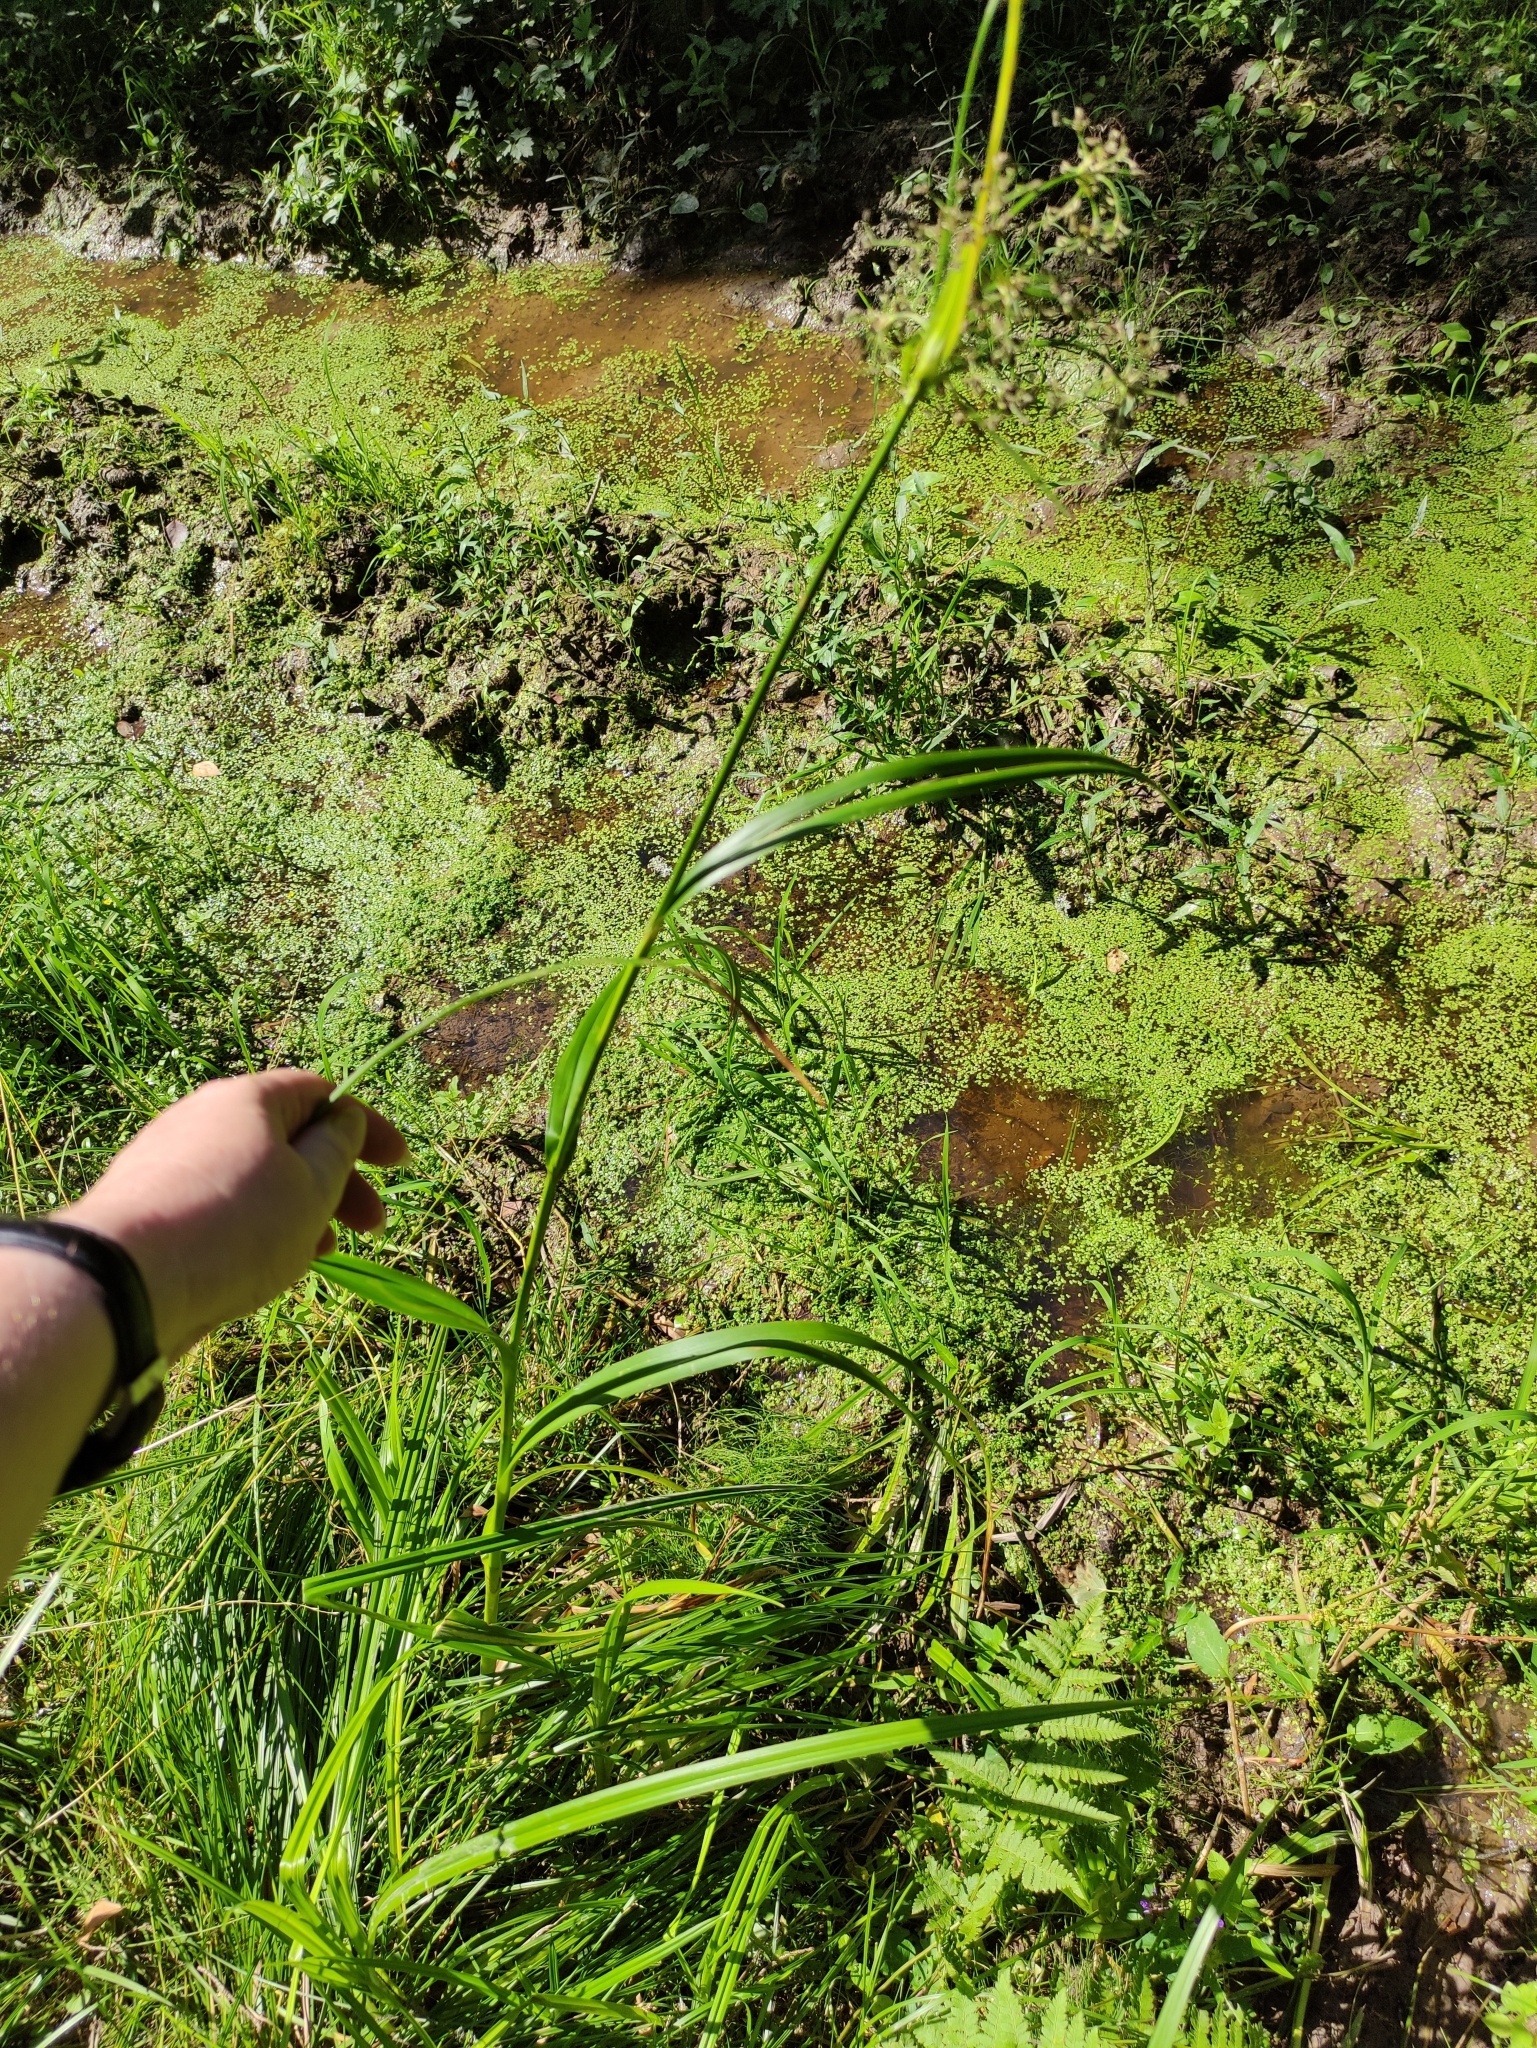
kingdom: Plantae
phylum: Tracheophyta
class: Liliopsida
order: Poales
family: Cyperaceae
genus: Scirpus
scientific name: Scirpus sylvaticus
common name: Wood club-rush
